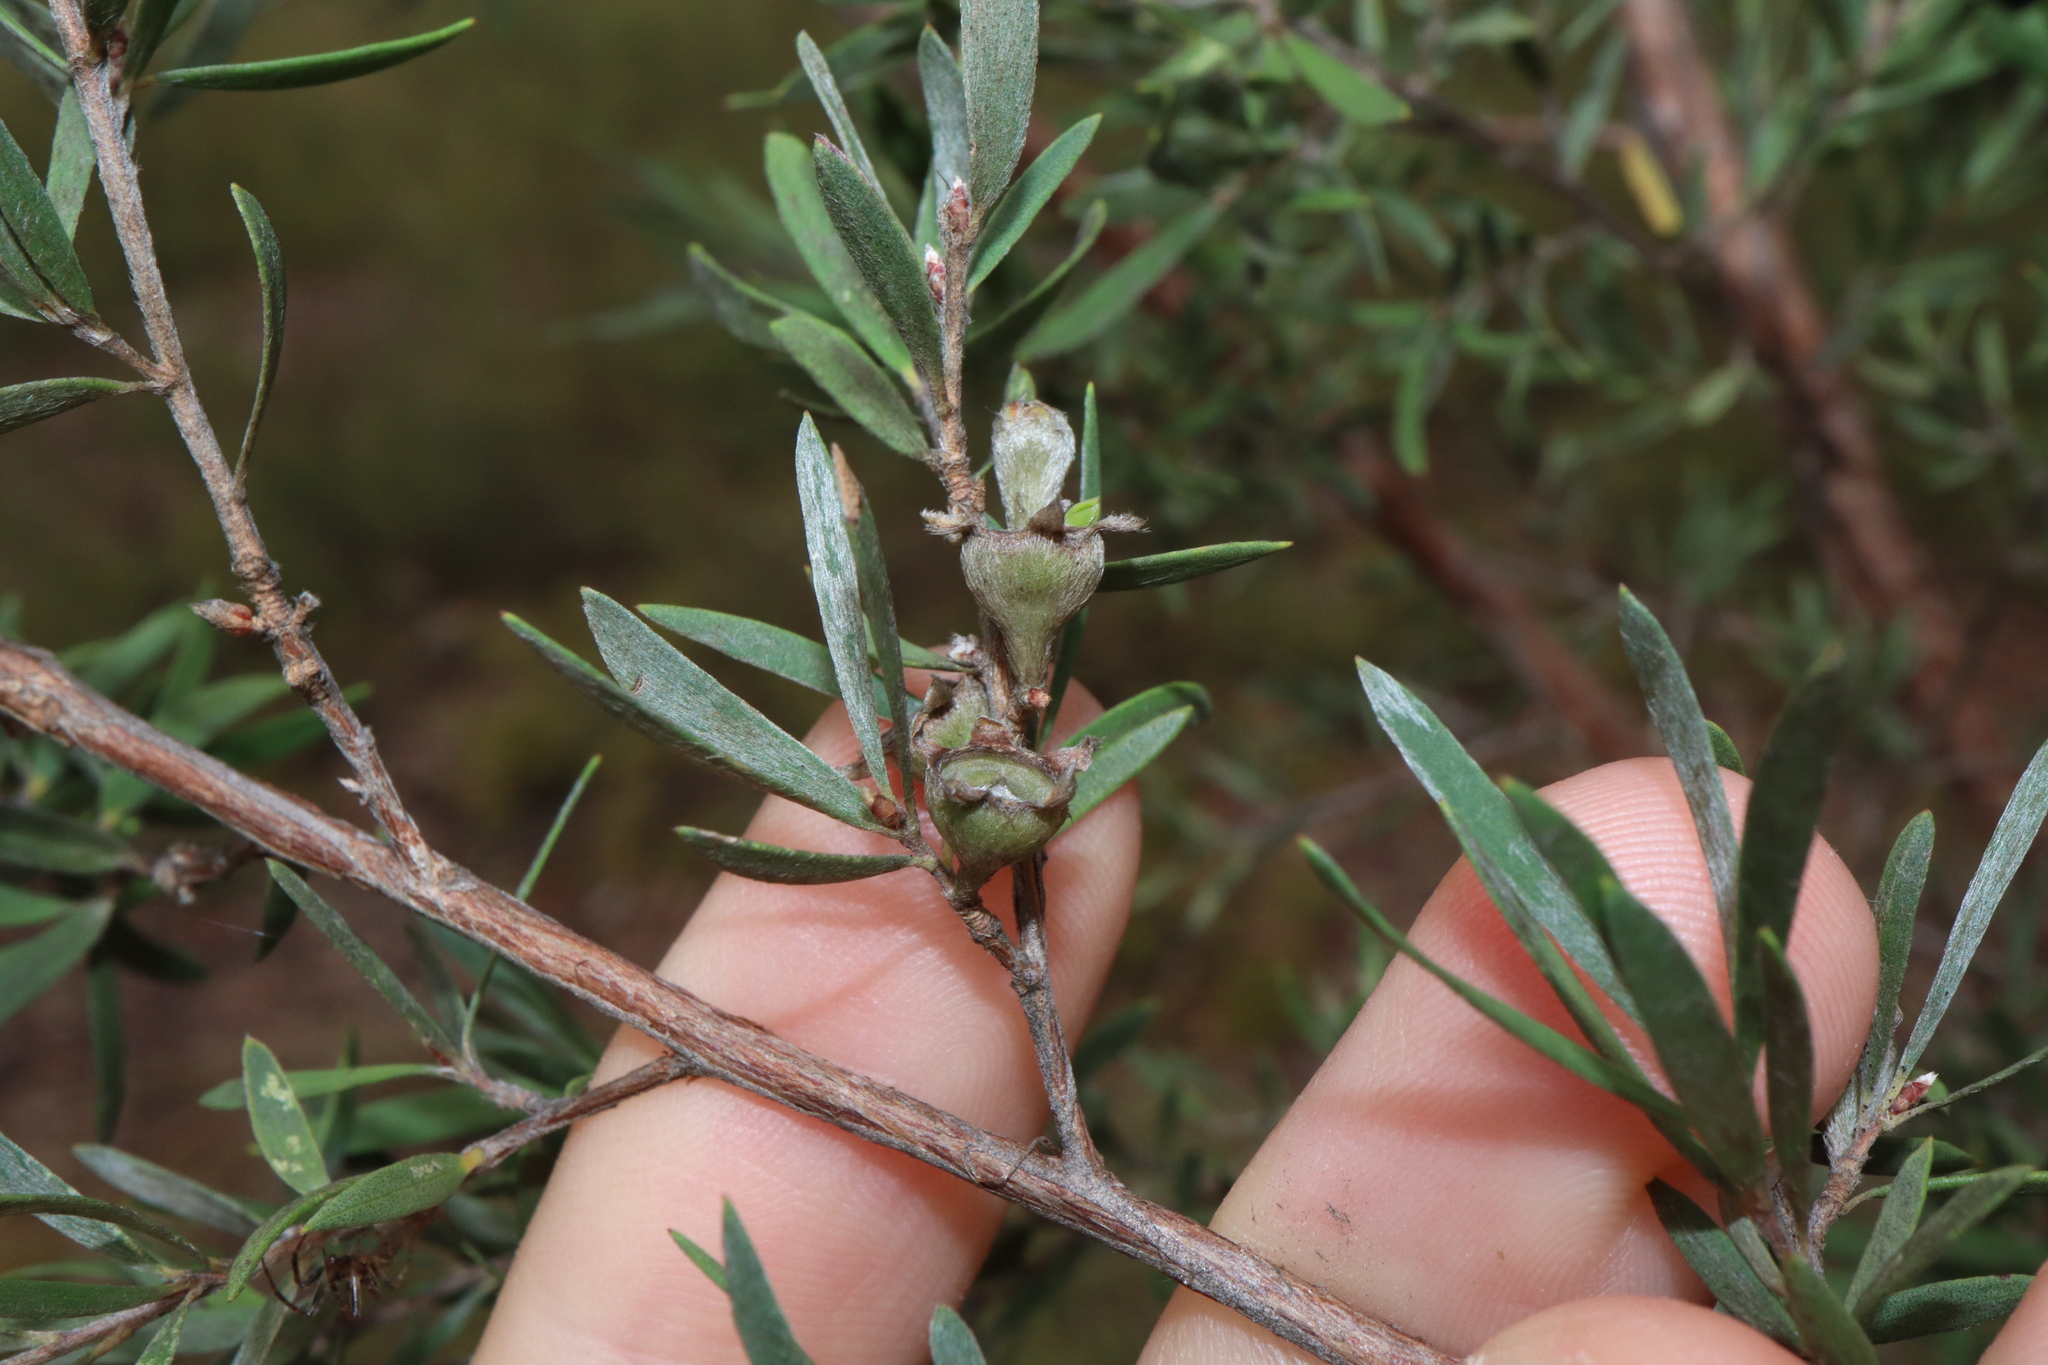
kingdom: Plantae
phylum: Tracheophyta
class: Magnoliopsida
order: Myrtales
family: Myrtaceae
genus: Leptospermum
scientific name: Leptospermum trinervium
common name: Flaky-barked tea-tree
